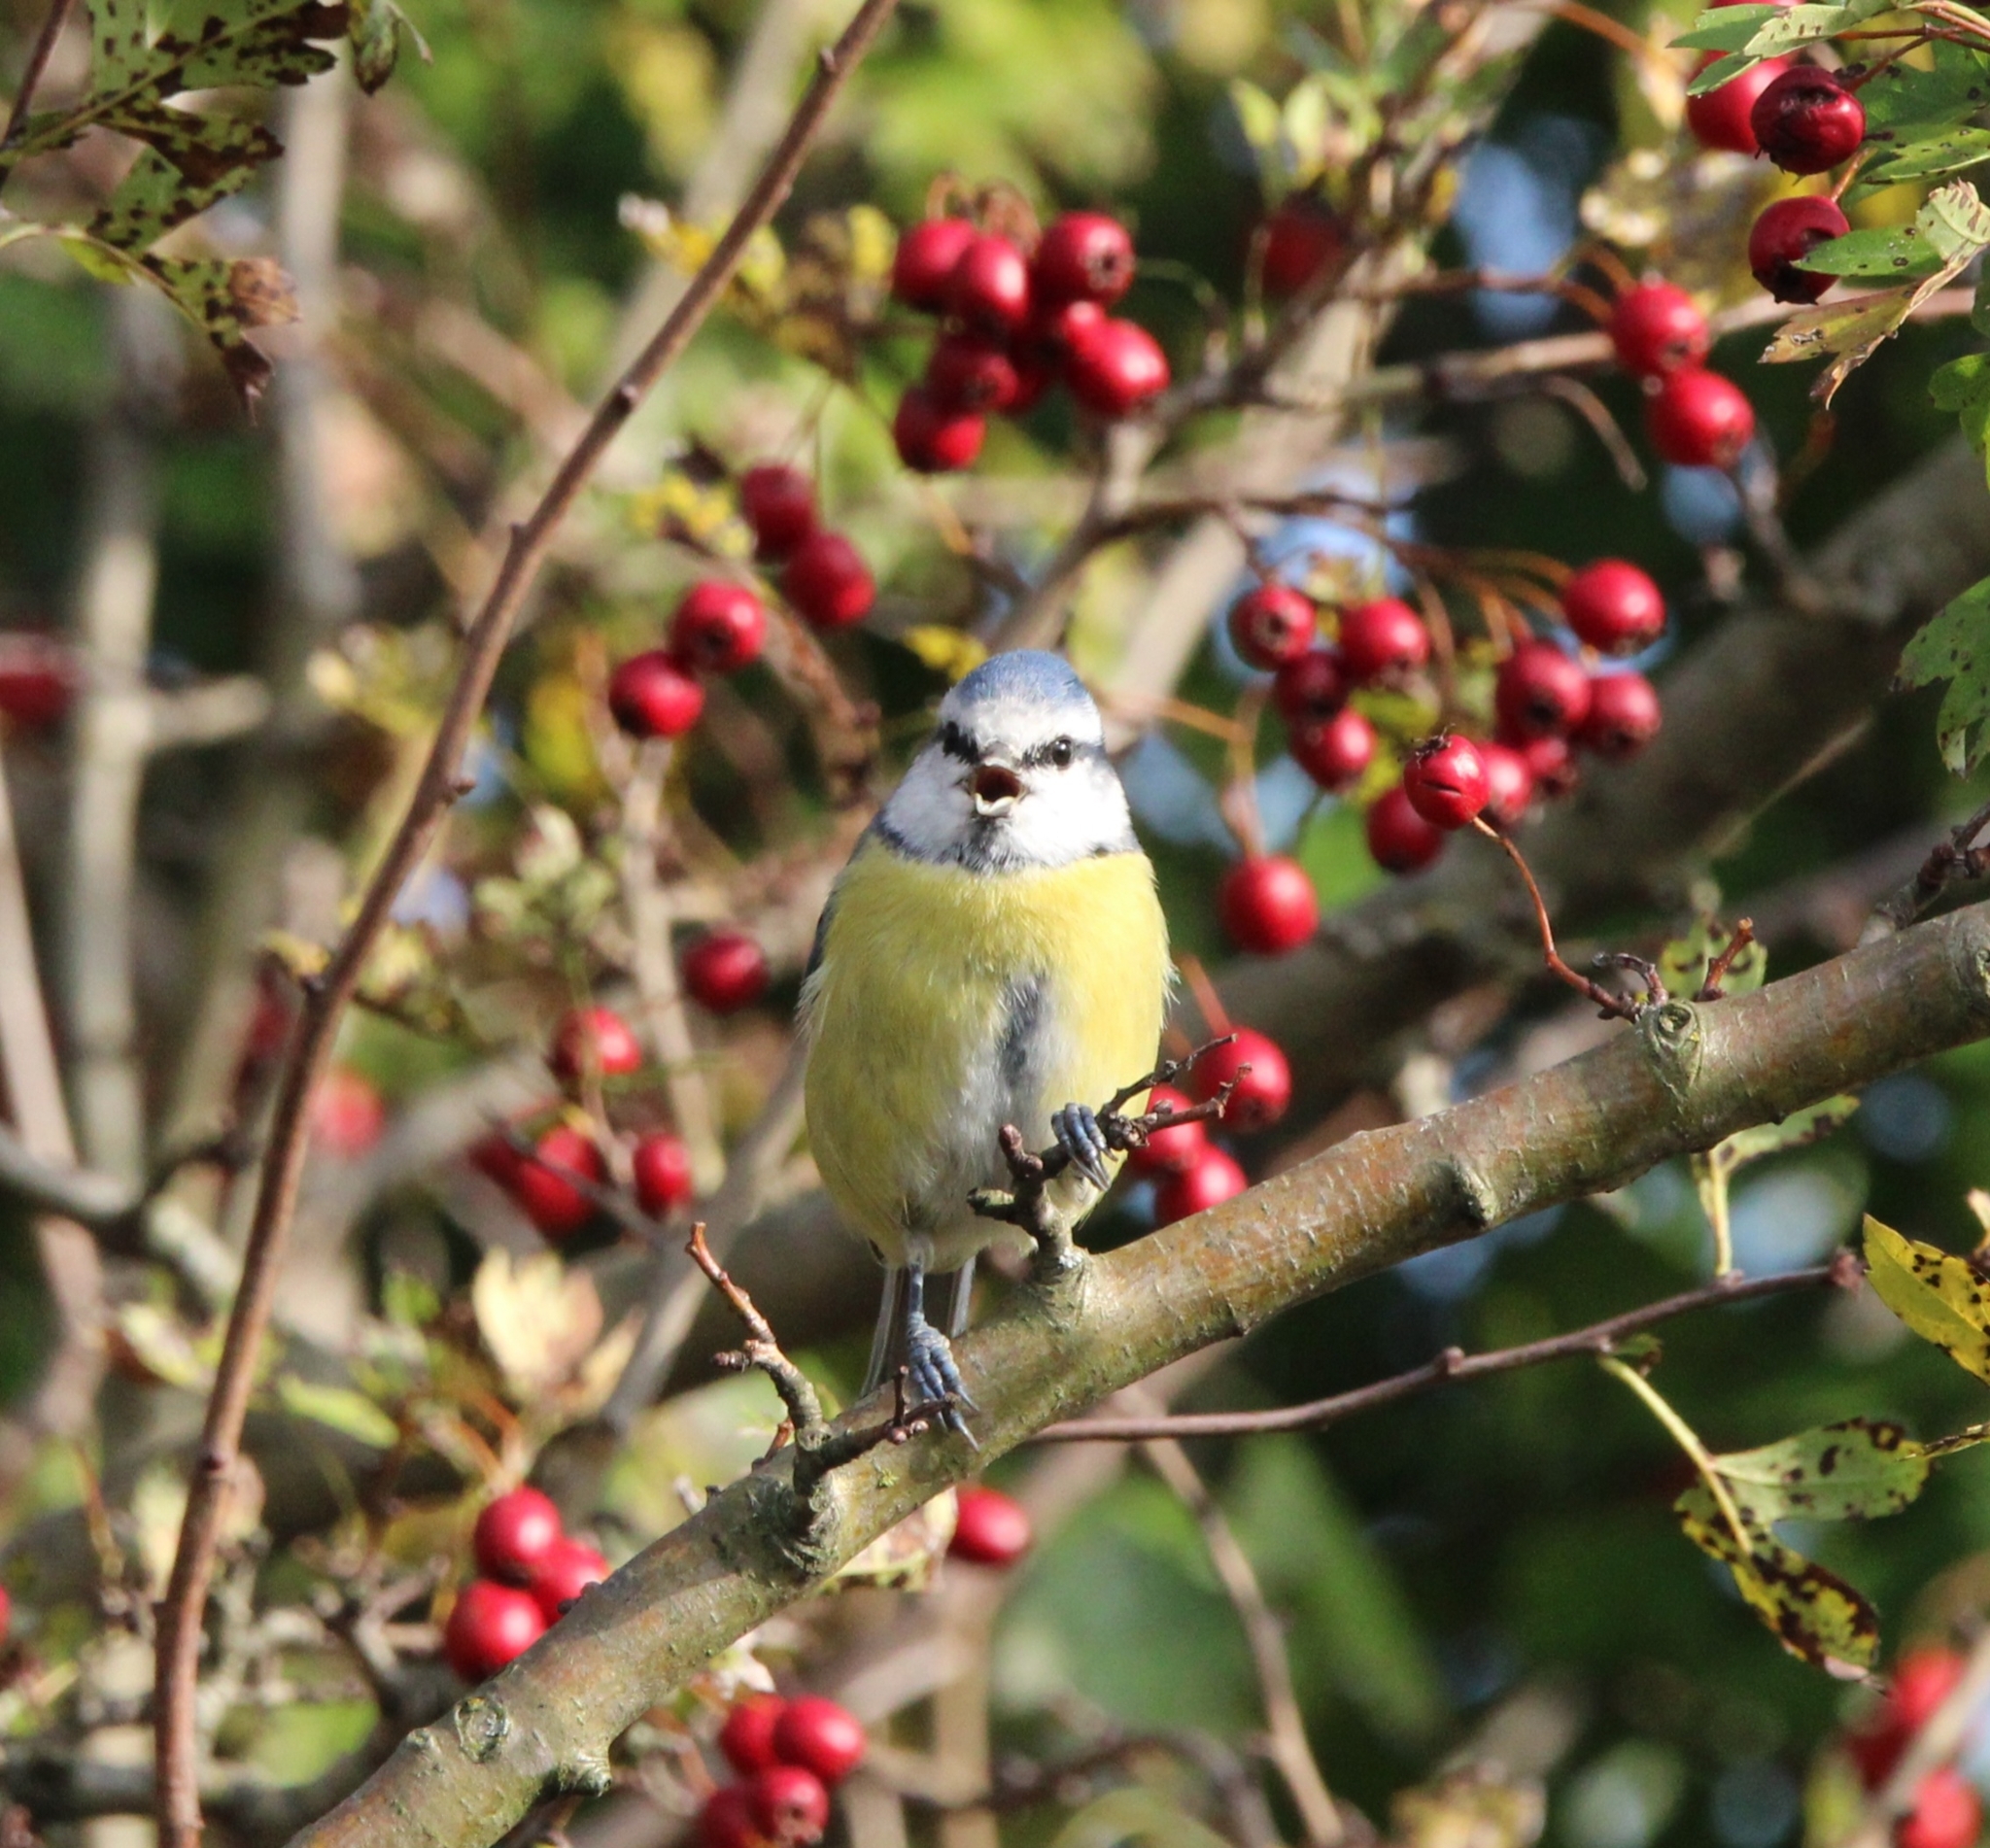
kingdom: Animalia
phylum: Chordata
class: Aves
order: Passeriformes
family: Paridae
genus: Cyanistes
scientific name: Cyanistes caeruleus
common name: Eurasian blue tit
